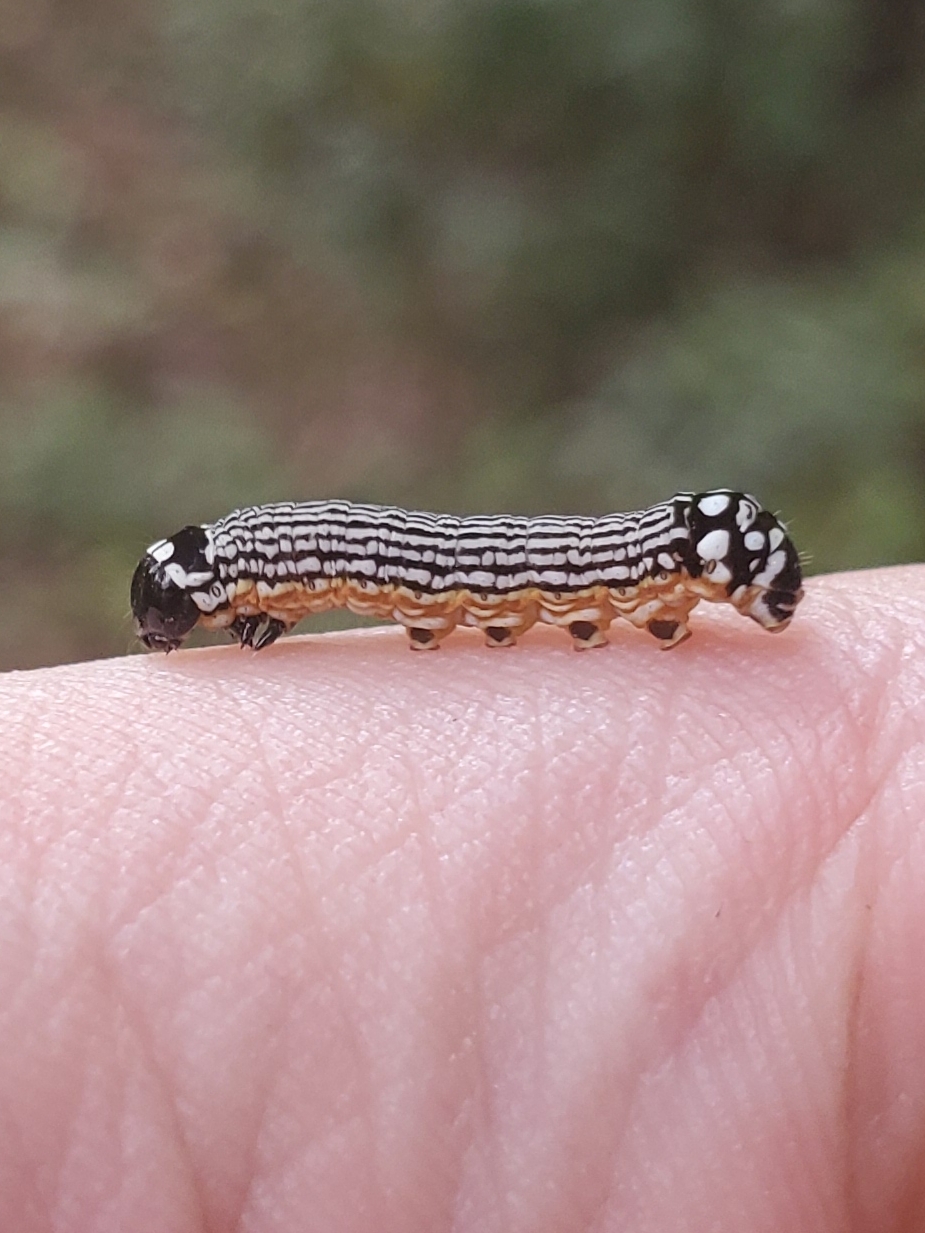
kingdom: Animalia
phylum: Arthropoda
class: Insecta
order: Lepidoptera
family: Noctuidae
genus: Phosphila
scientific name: Phosphila turbulenta
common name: Turbulent phosphila moth
